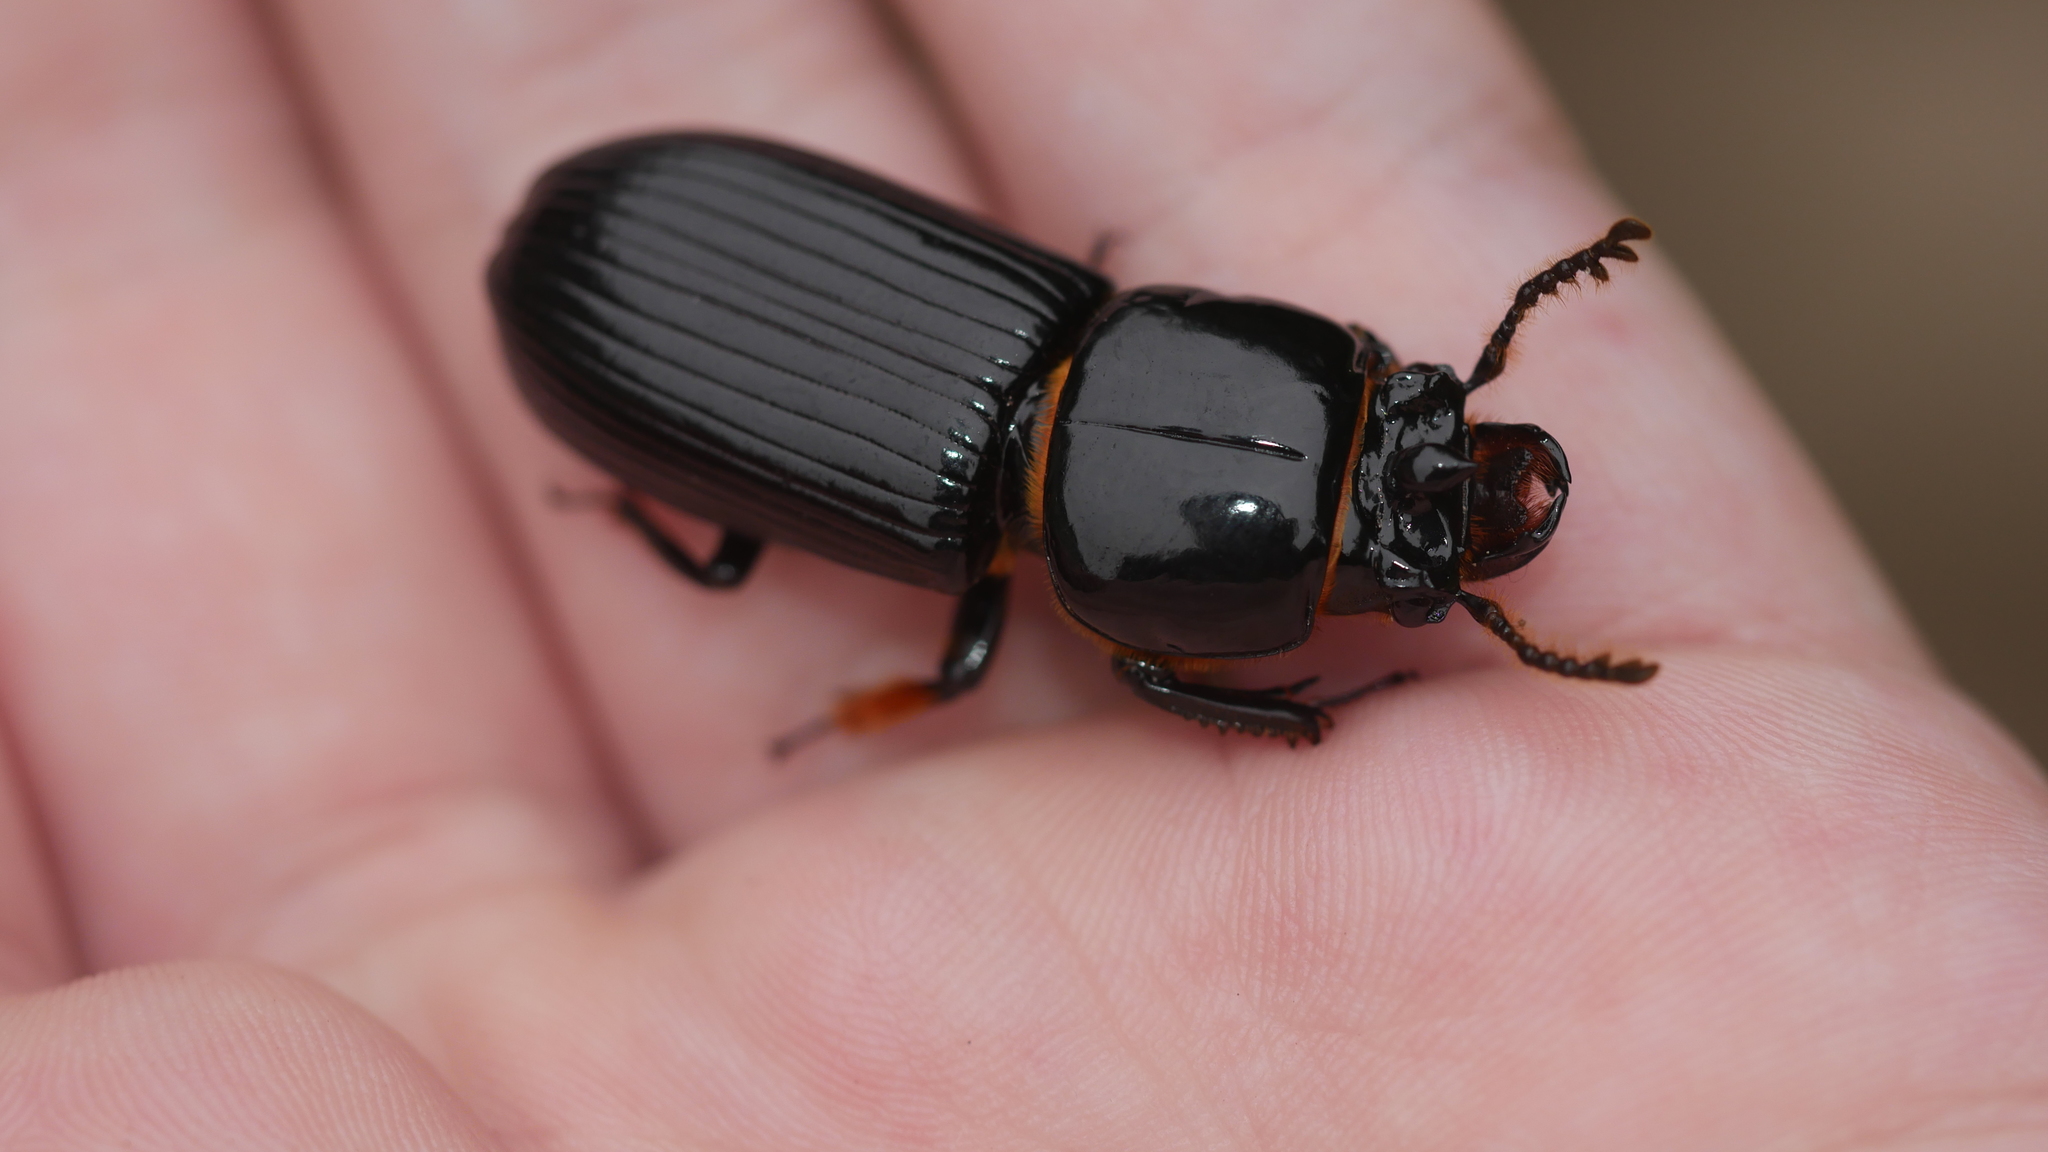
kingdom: Animalia
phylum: Arthropoda
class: Insecta
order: Coleoptera
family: Passalidae
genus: Odontotaenius
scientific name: Odontotaenius disjunctus
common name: Patent leather beetle
